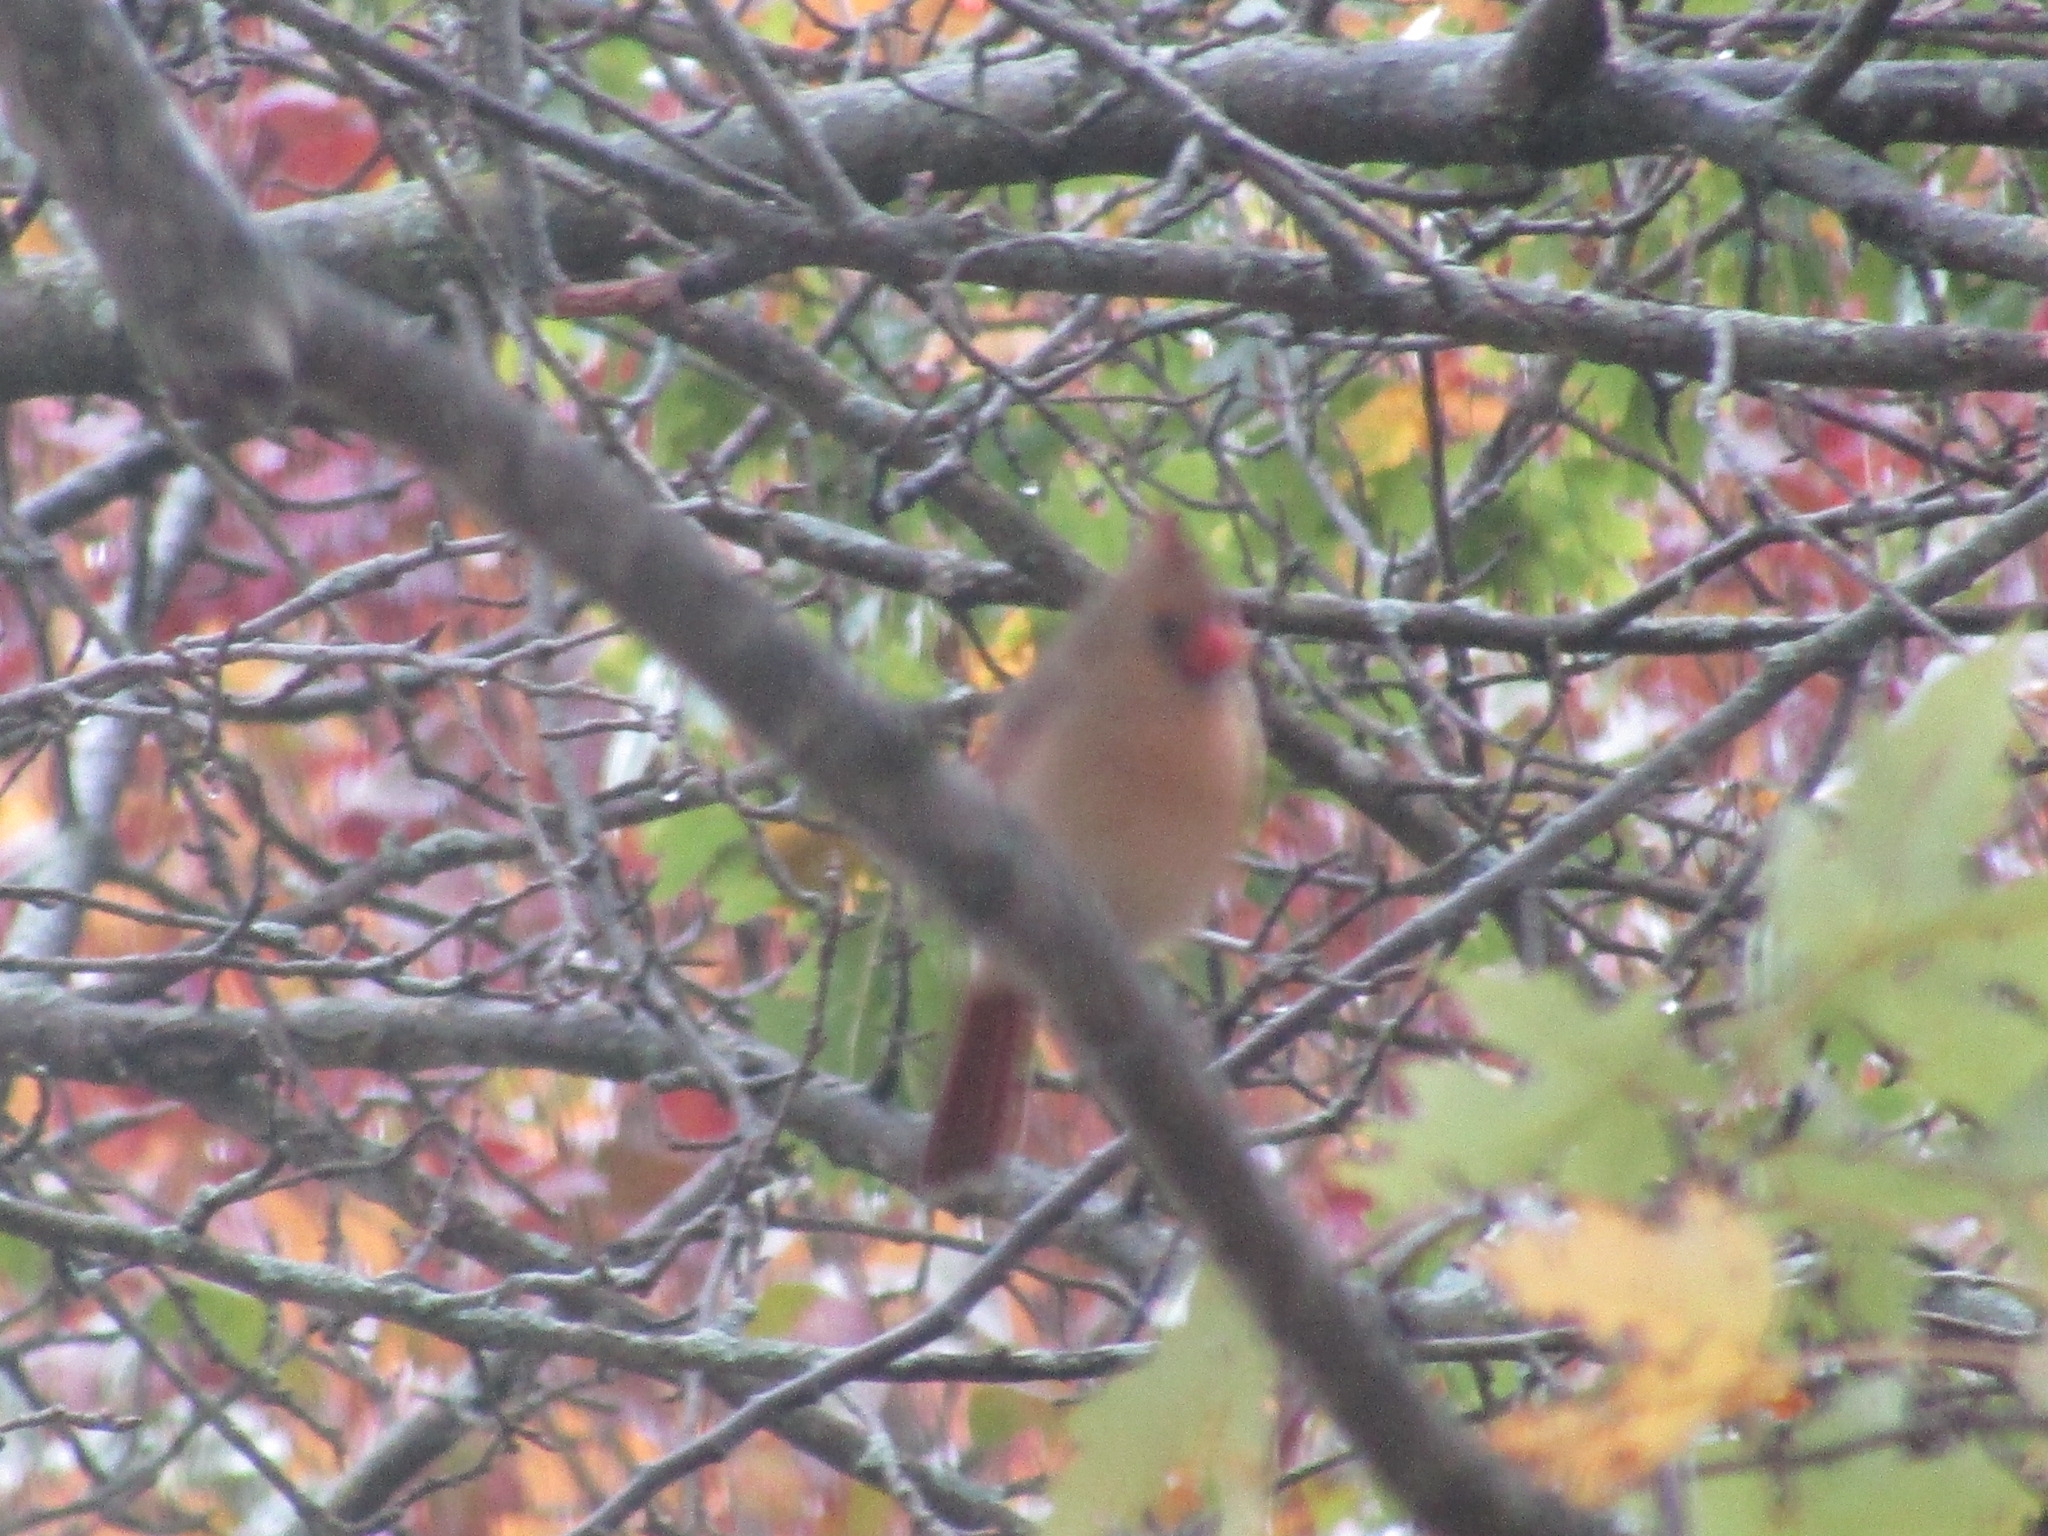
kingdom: Animalia
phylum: Chordata
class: Aves
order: Passeriformes
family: Cardinalidae
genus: Cardinalis
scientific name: Cardinalis cardinalis
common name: Northern cardinal
